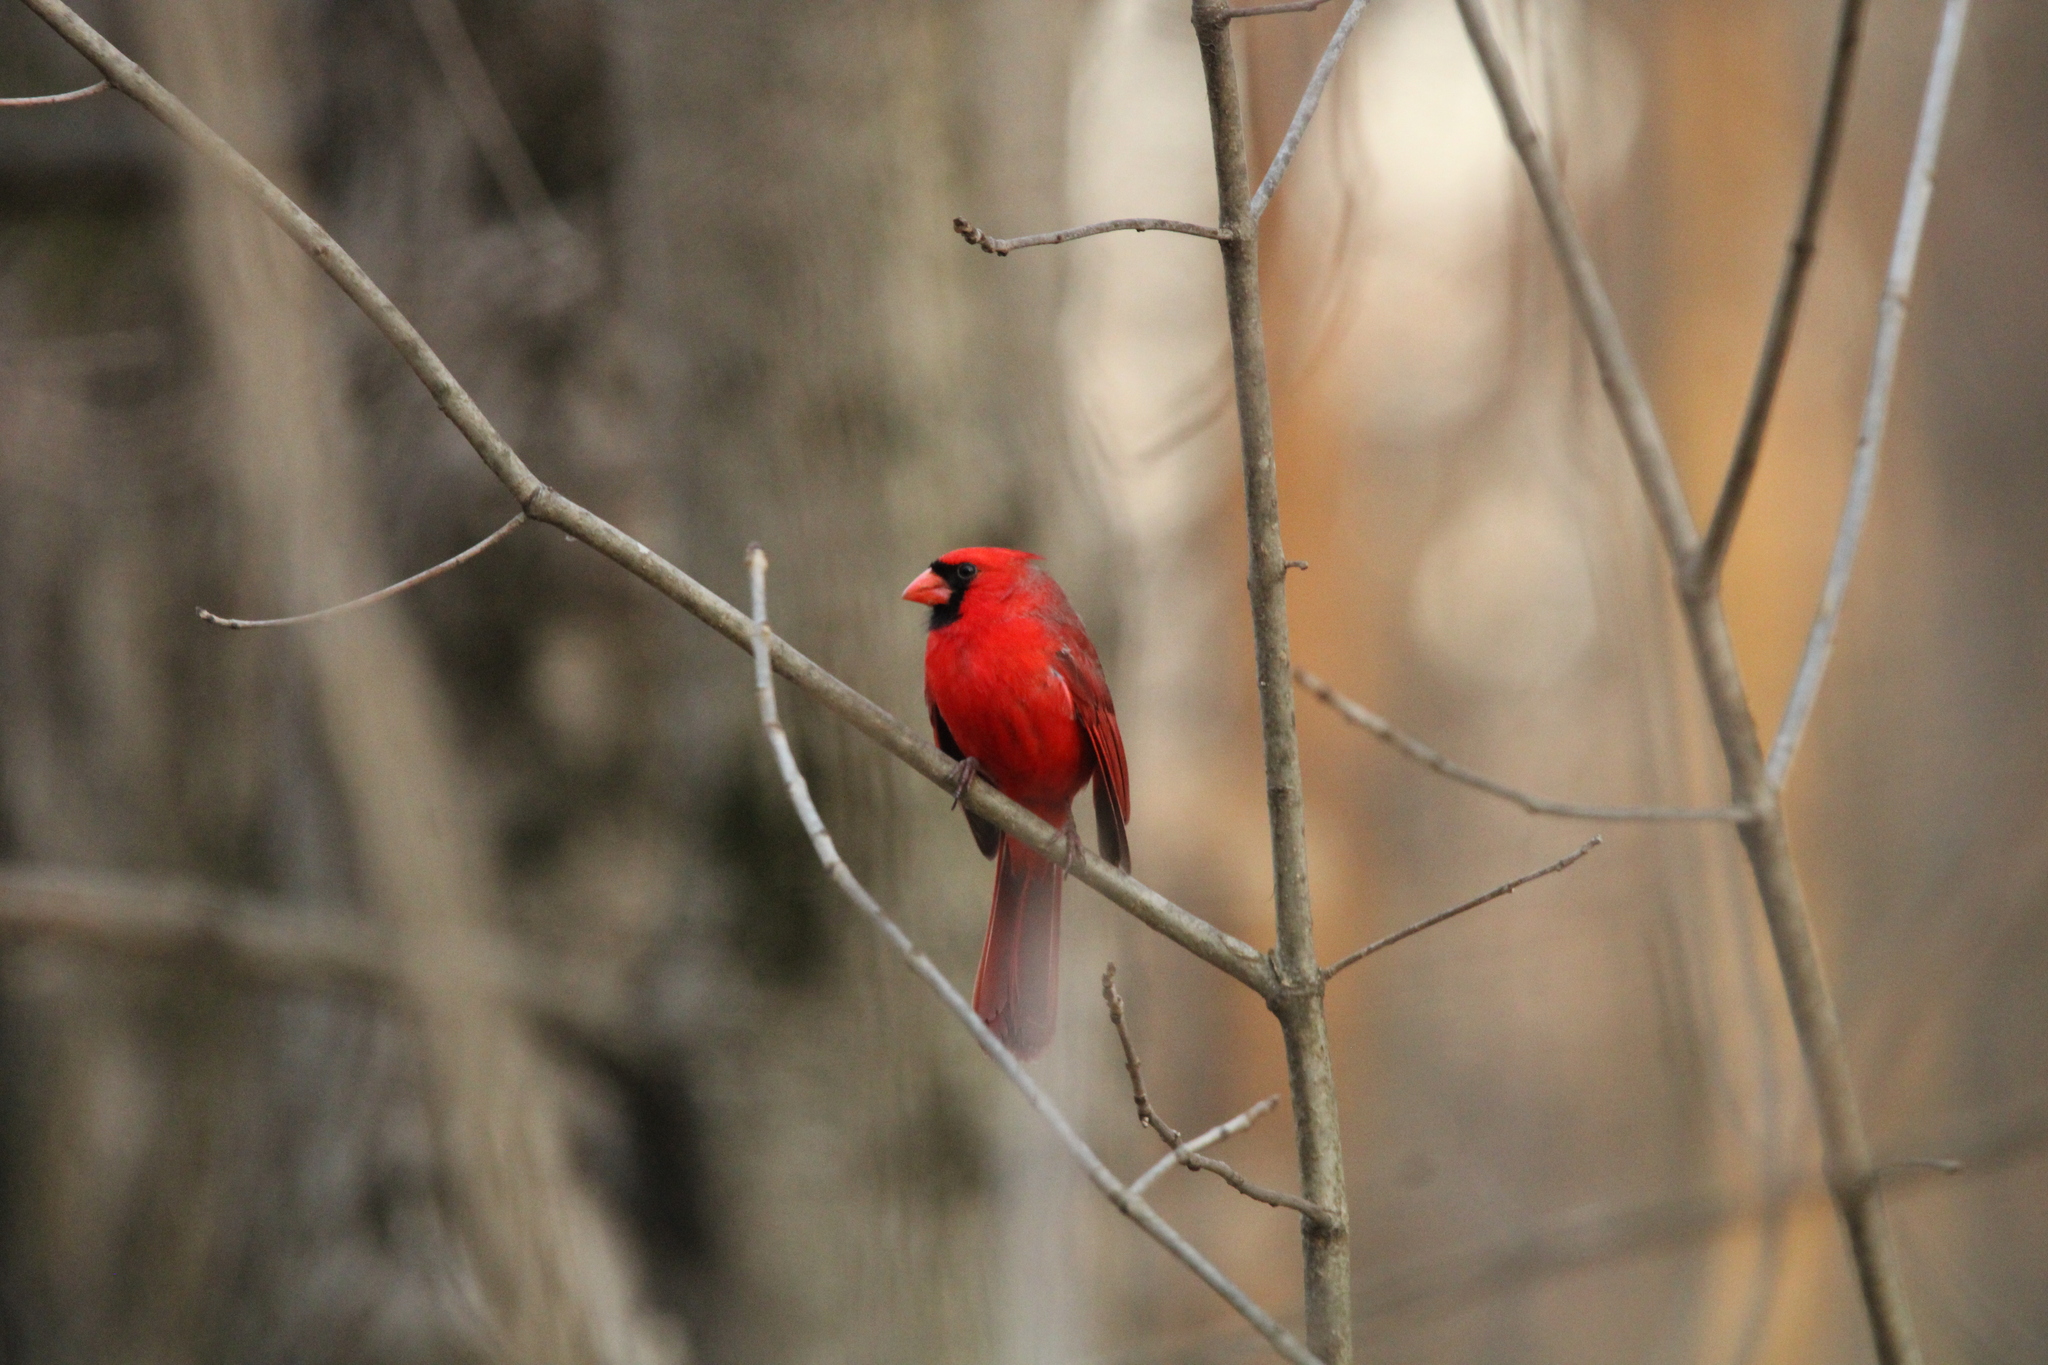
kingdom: Animalia
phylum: Chordata
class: Aves
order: Passeriformes
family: Cardinalidae
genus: Cardinalis
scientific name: Cardinalis cardinalis
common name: Northern cardinal
